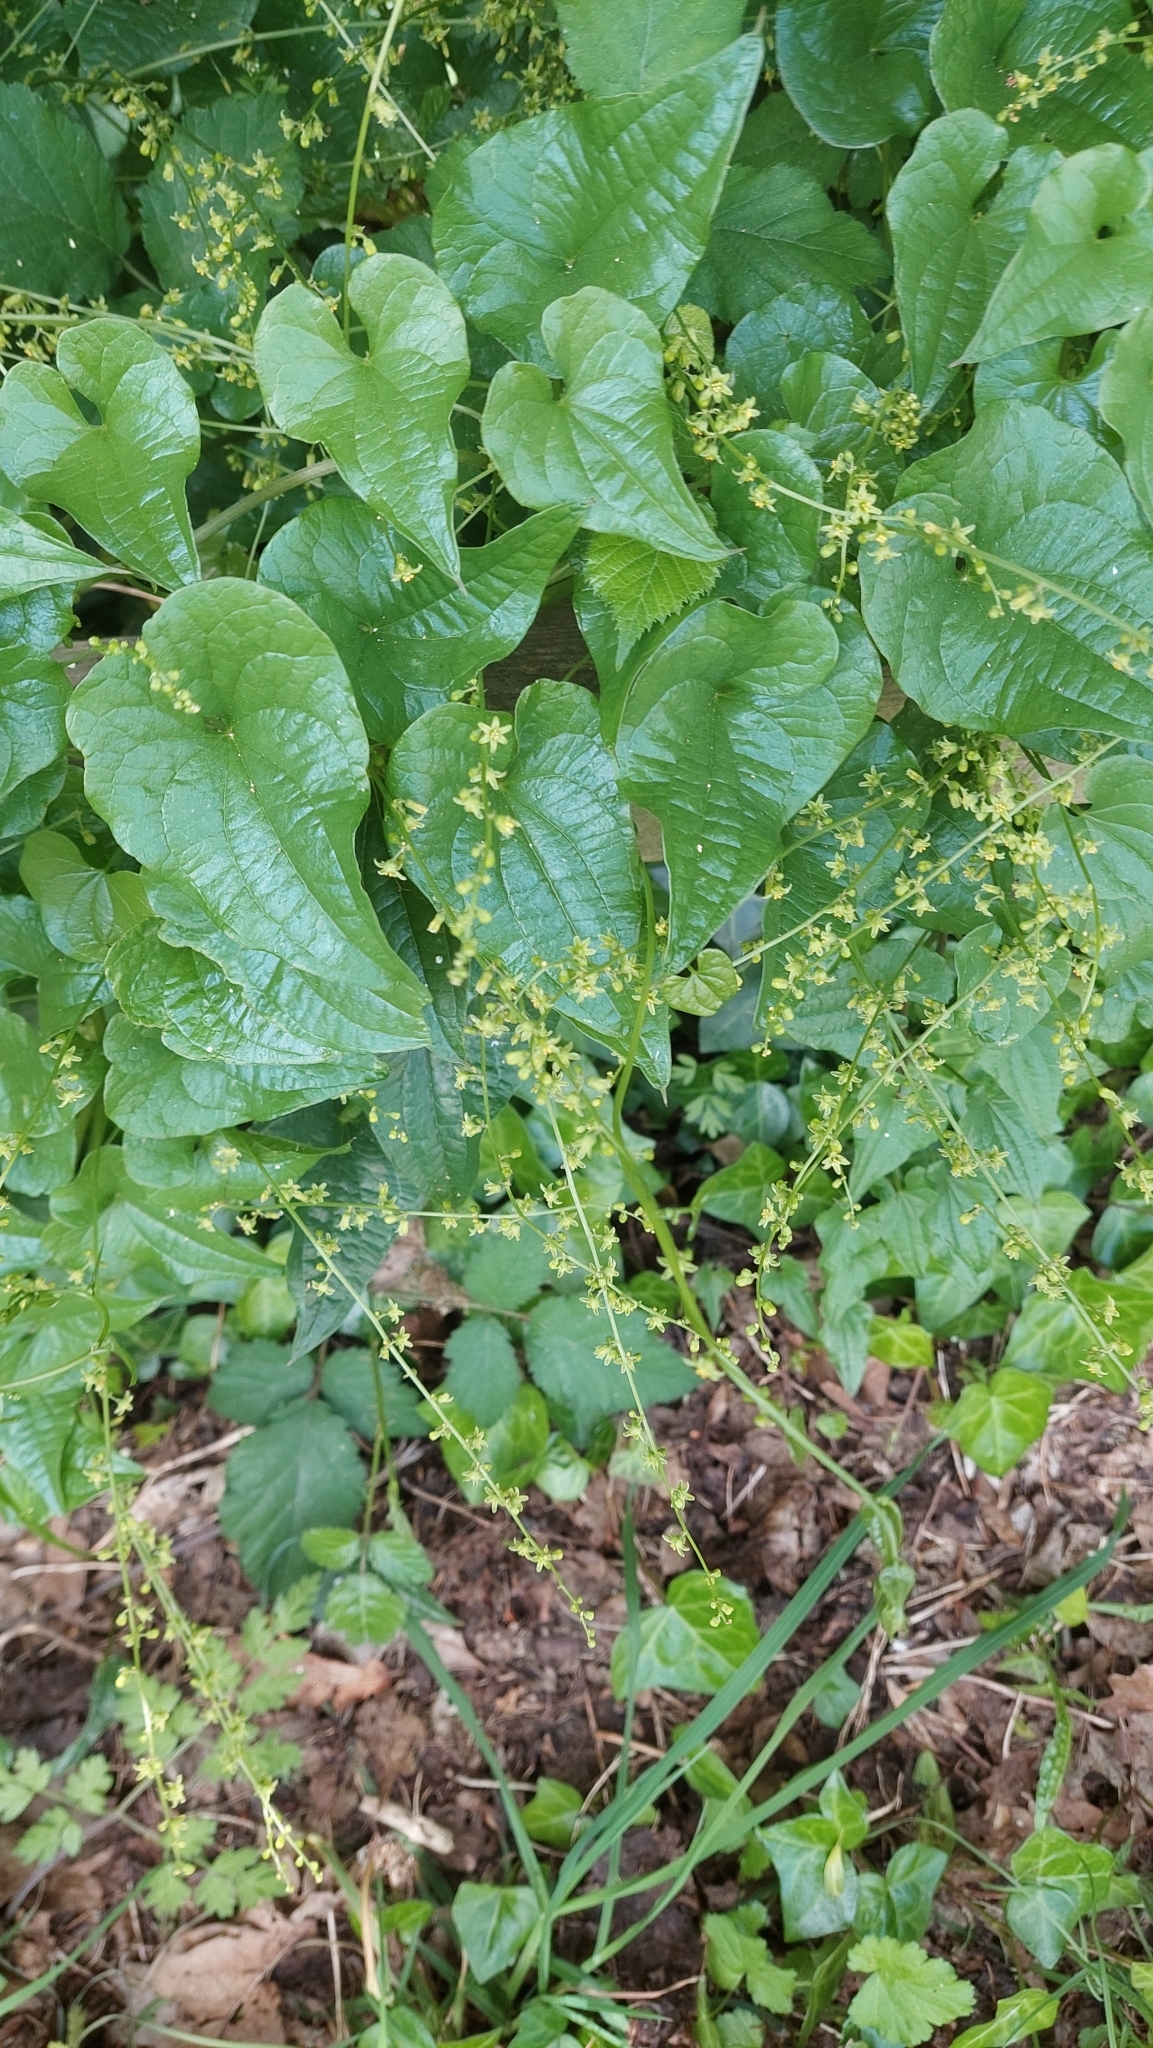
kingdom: Plantae
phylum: Tracheophyta
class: Liliopsida
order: Dioscoreales
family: Dioscoreaceae
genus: Dioscorea
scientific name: Dioscorea communis
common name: Black-bindweed
